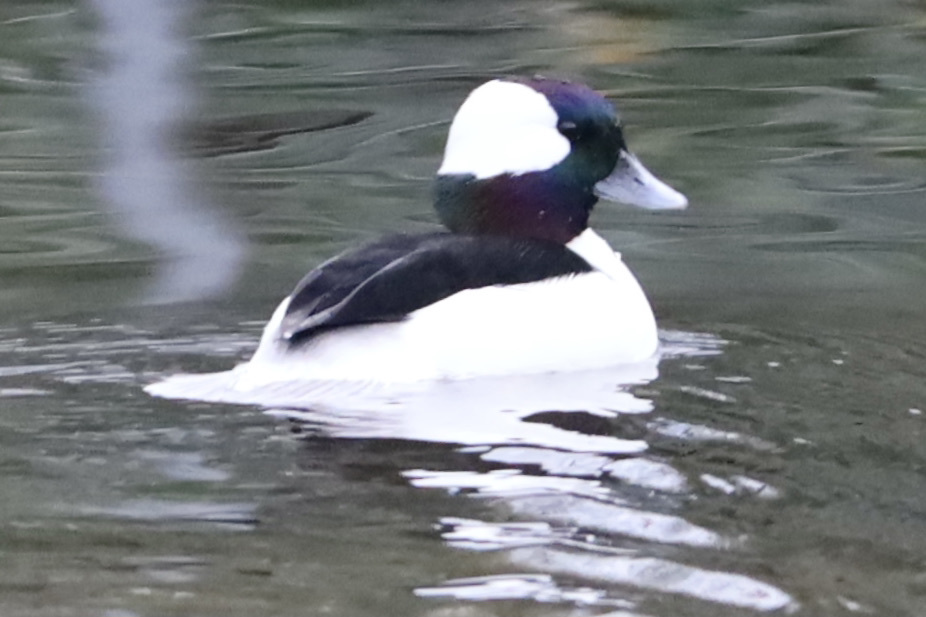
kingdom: Animalia
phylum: Chordata
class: Aves
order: Anseriformes
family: Anatidae
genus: Bucephala
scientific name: Bucephala albeola
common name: Bufflehead
